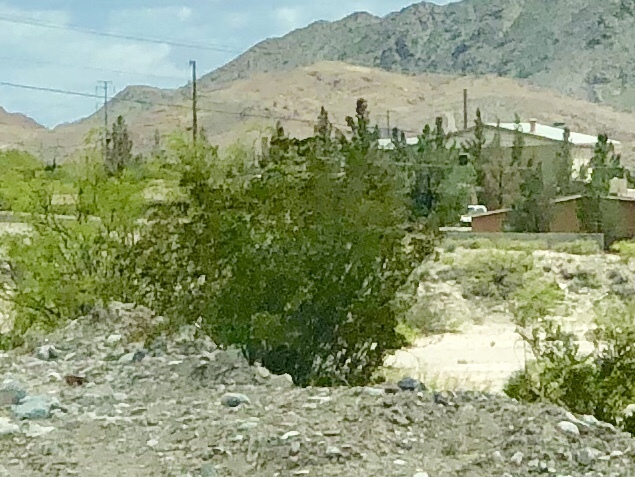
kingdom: Plantae
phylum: Tracheophyta
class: Magnoliopsida
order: Zygophyllales
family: Zygophyllaceae
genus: Larrea
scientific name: Larrea tridentata
